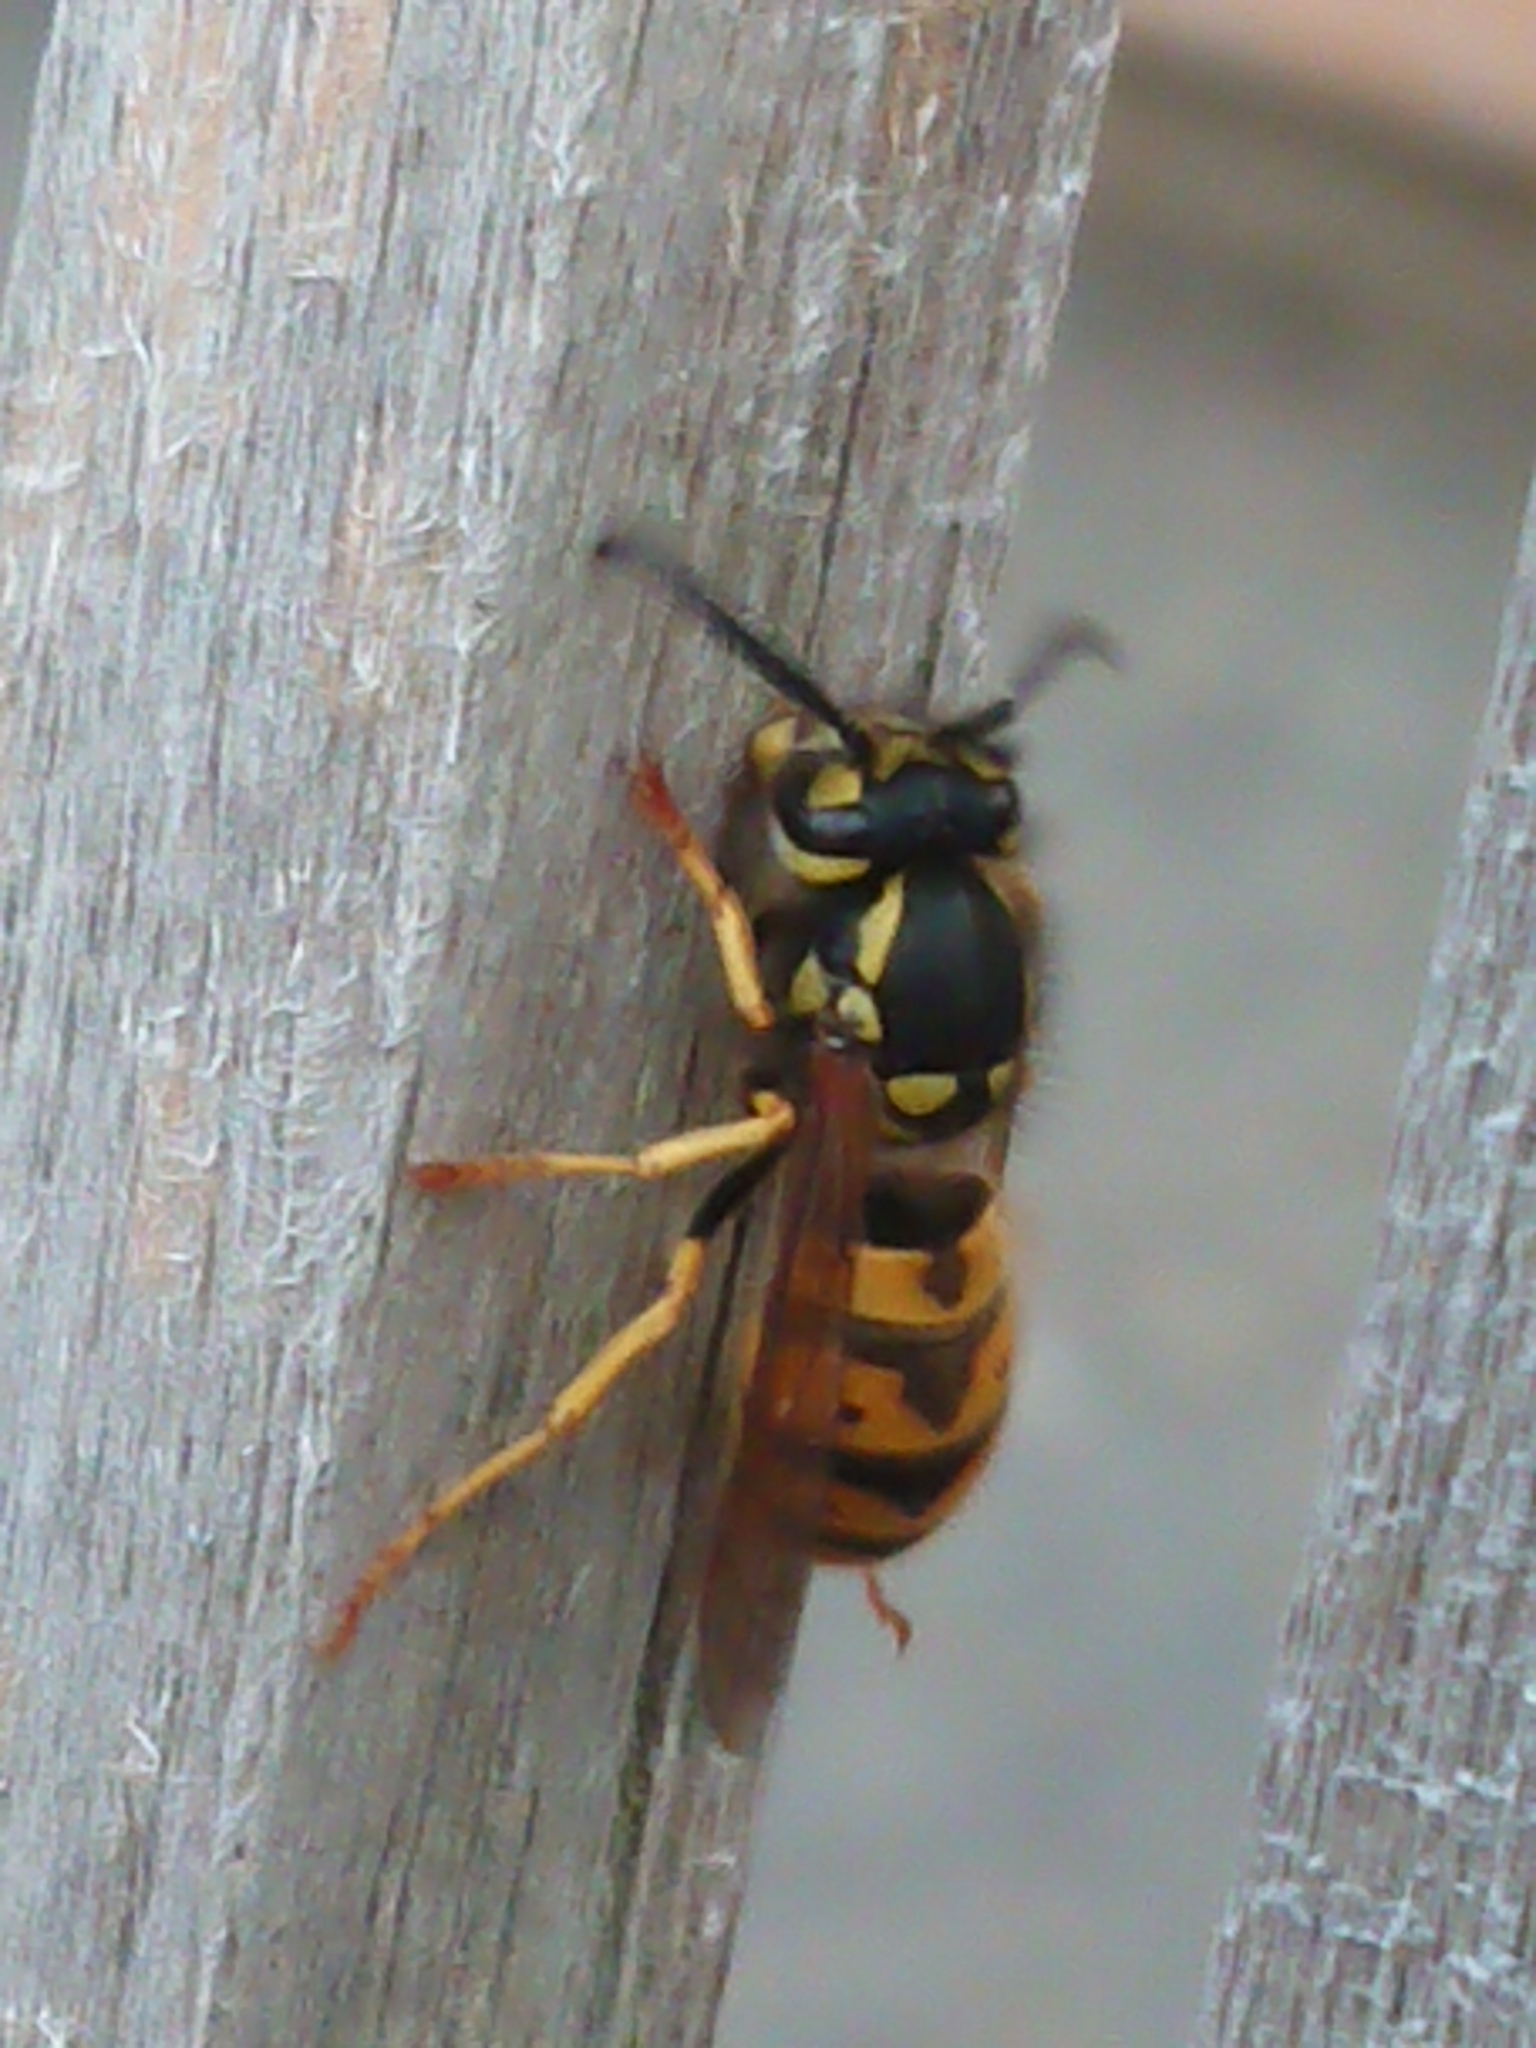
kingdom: Animalia
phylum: Arthropoda
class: Insecta
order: Hymenoptera
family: Vespidae
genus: Vespula
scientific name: Vespula germanica
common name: German wasp
